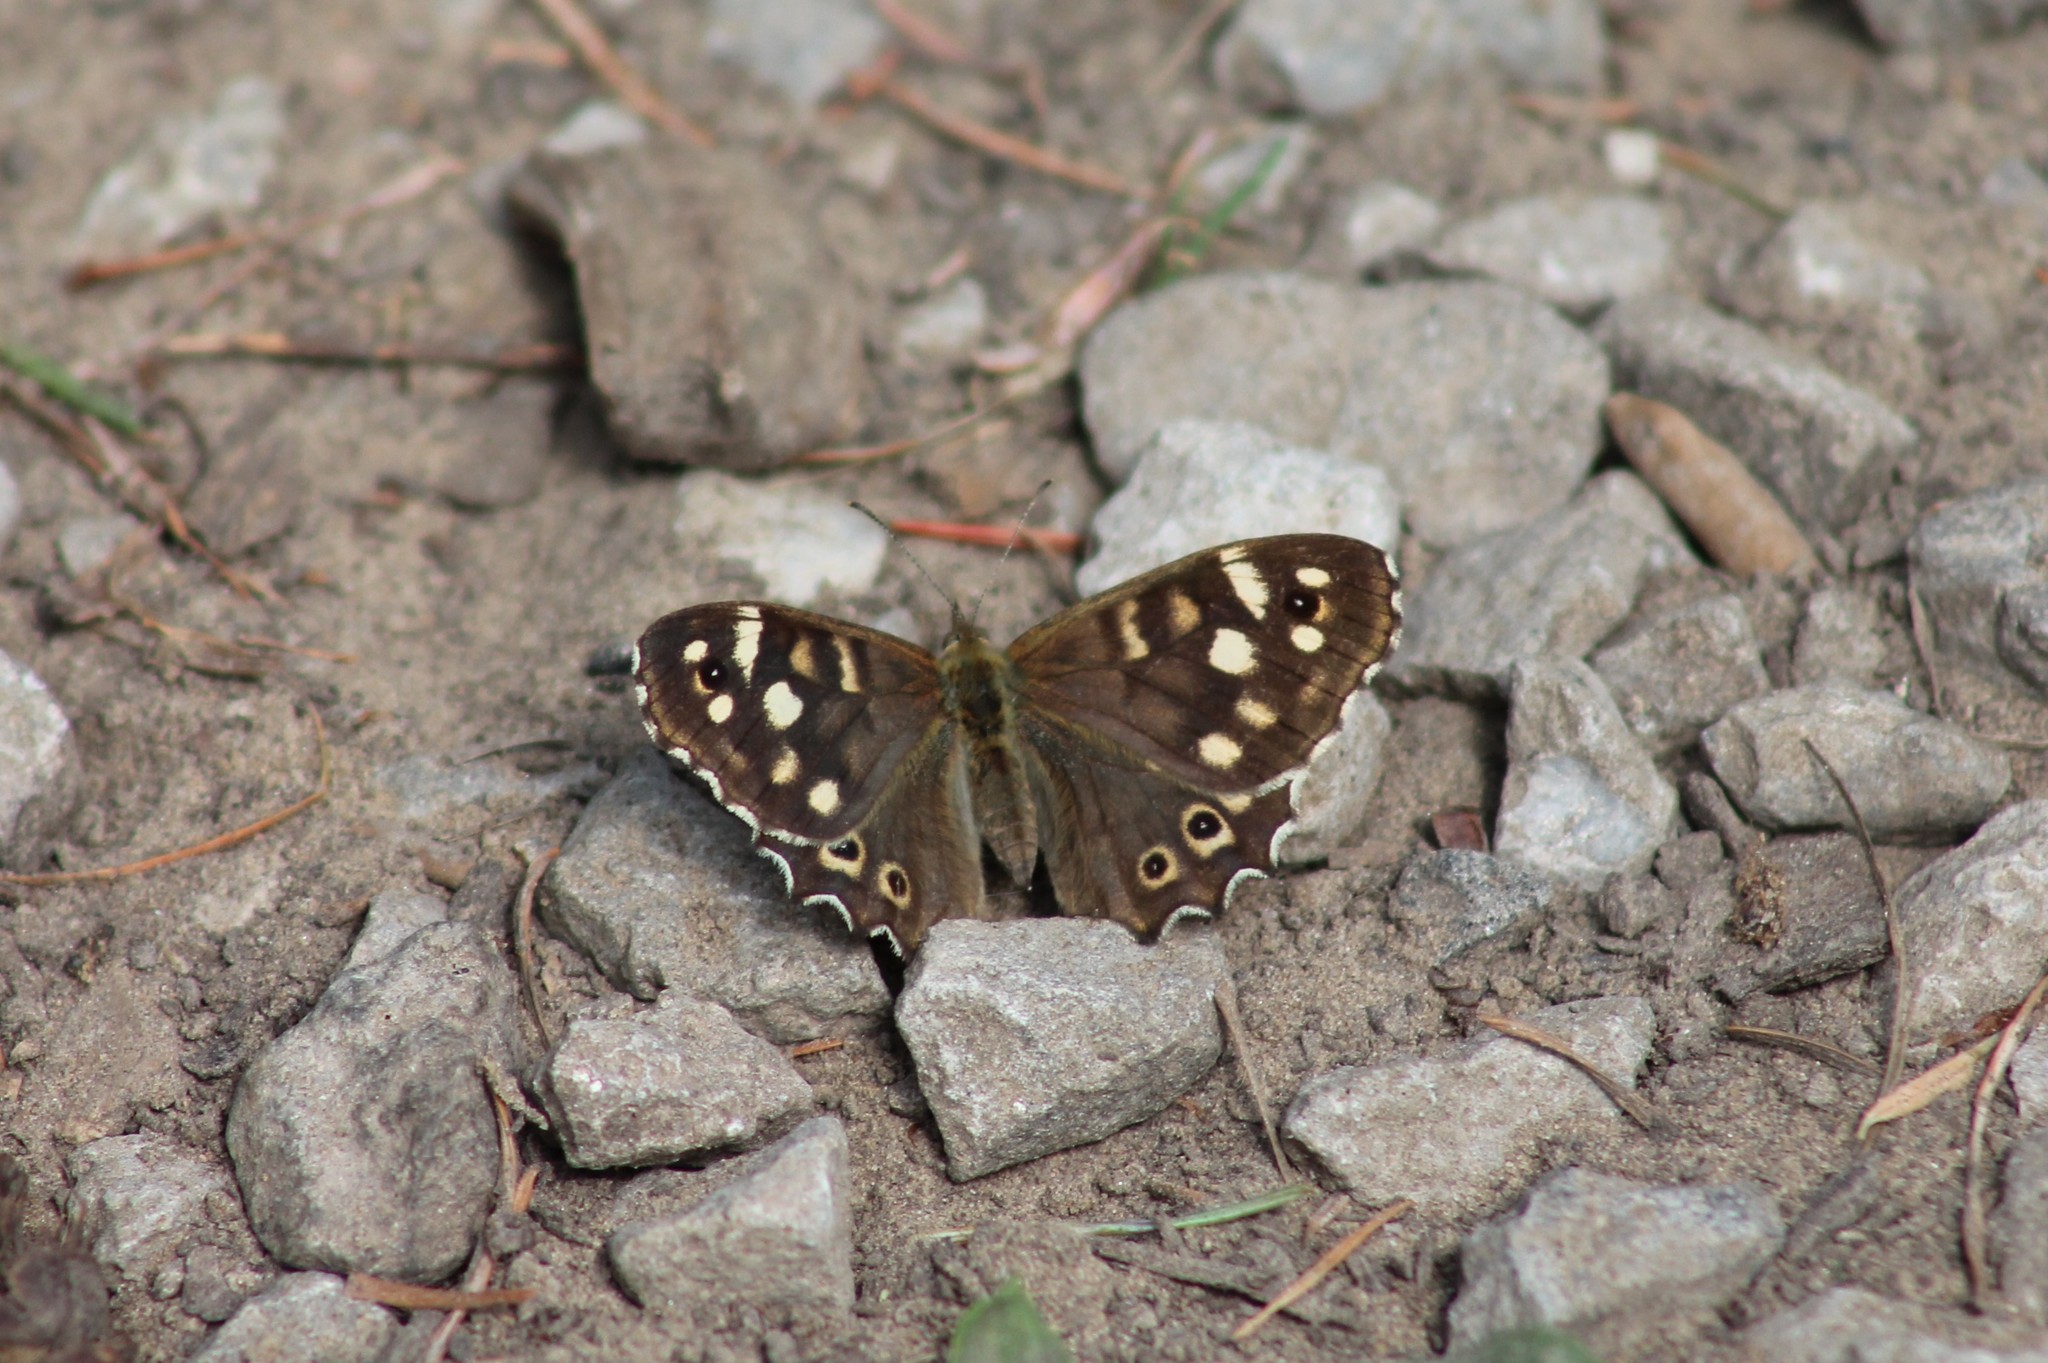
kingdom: Animalia
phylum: Arthropoda
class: Insecta
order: Lepidoptera
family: Nymphalidae
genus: Pararge
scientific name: Pararge aegeria
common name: Speckled wood
